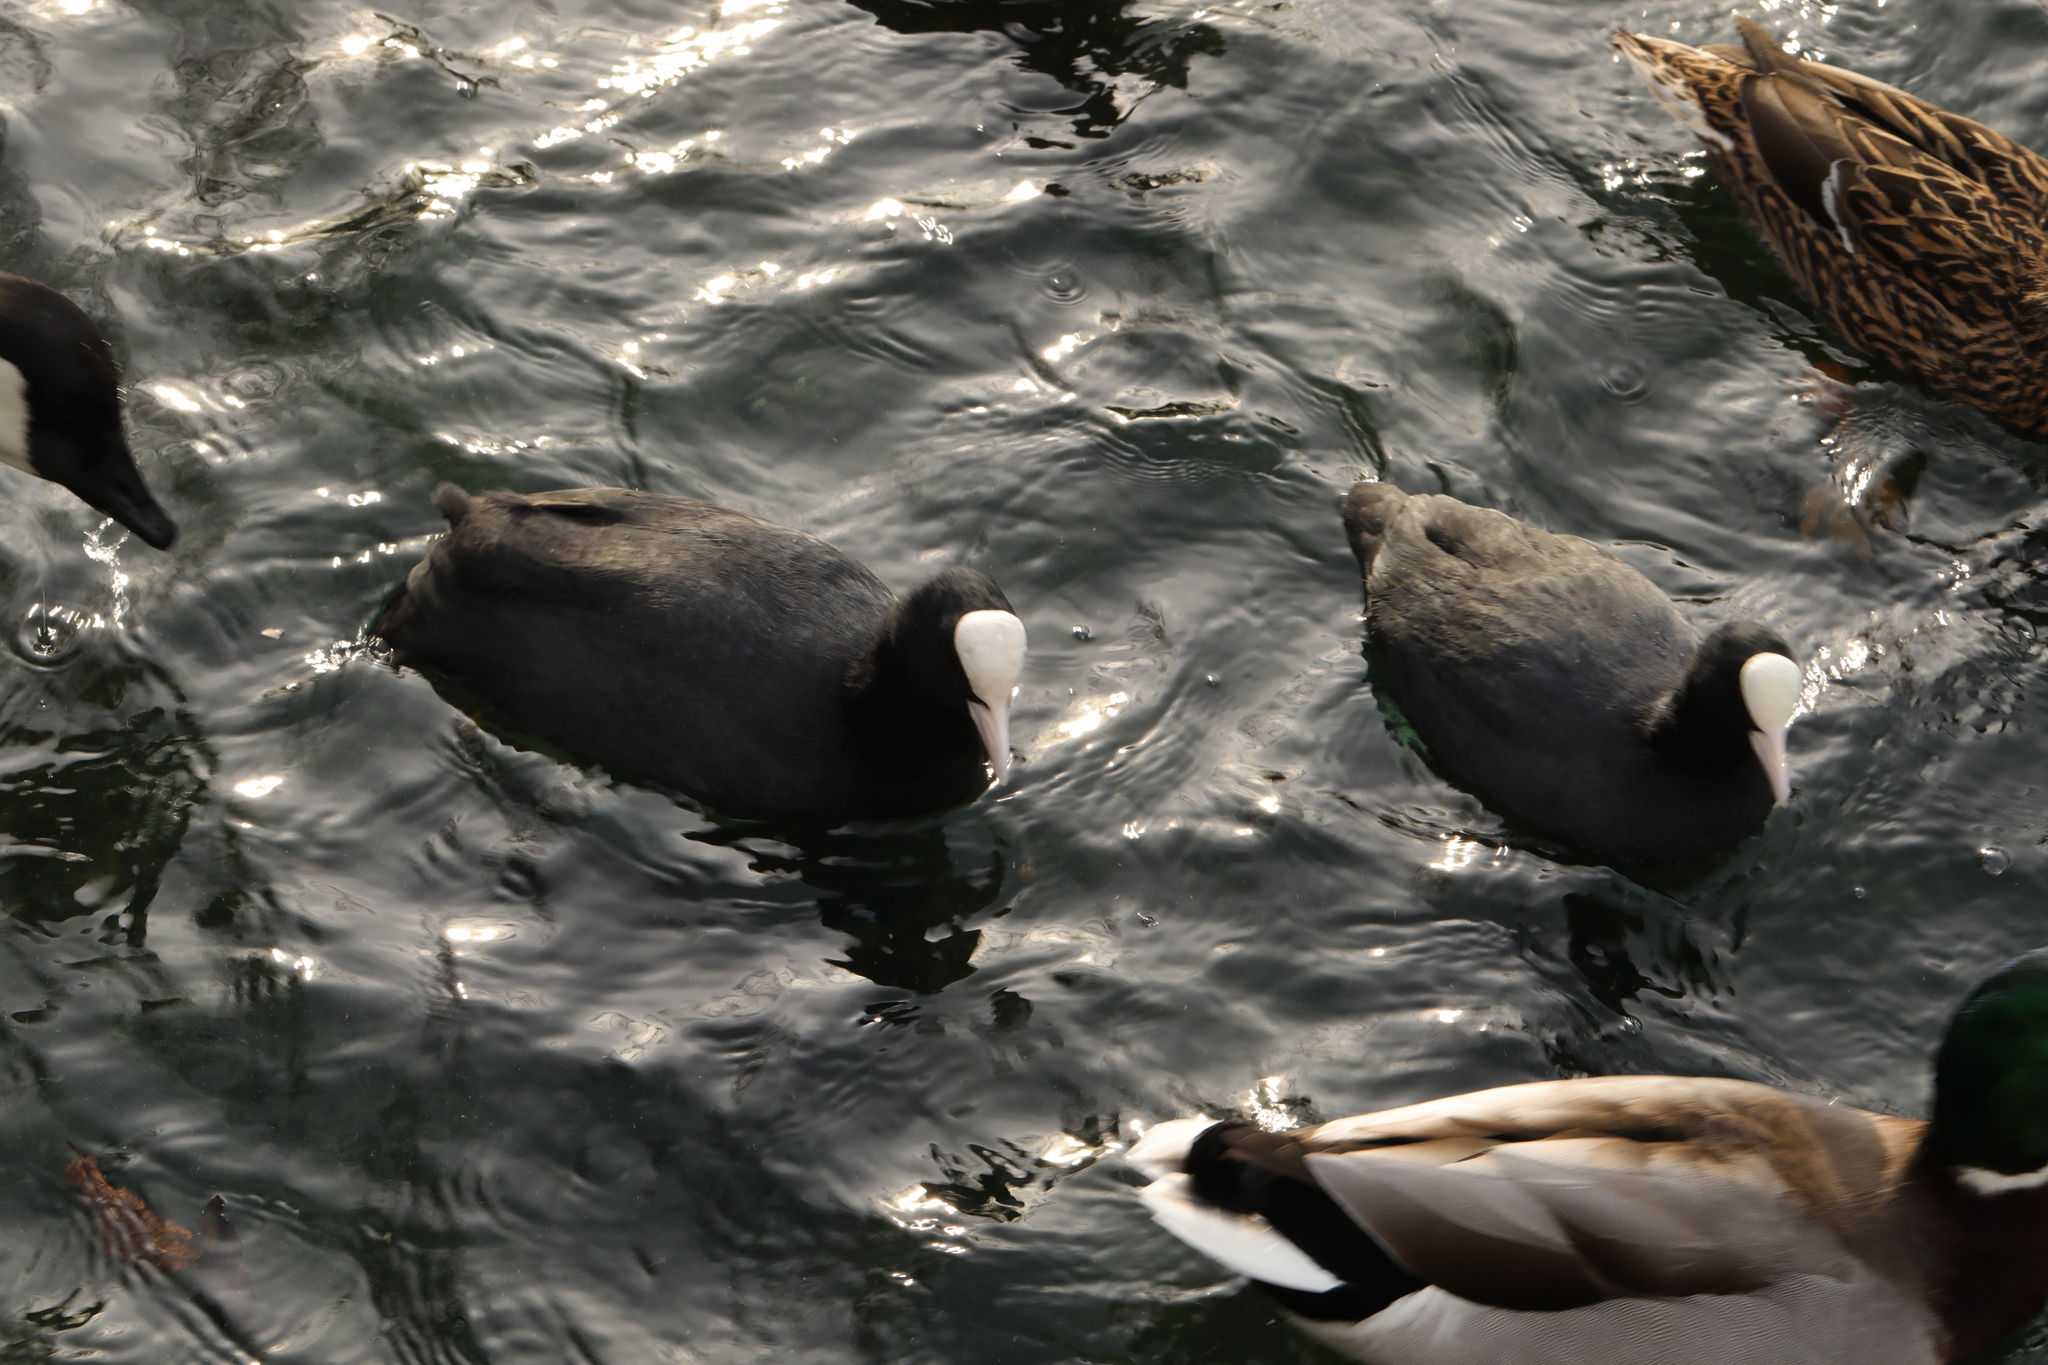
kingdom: Animalia
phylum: Chordata
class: Aves
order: Gruiformes
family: Rallidae
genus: Fulica
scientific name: Fulica atra
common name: Eurasian coot
